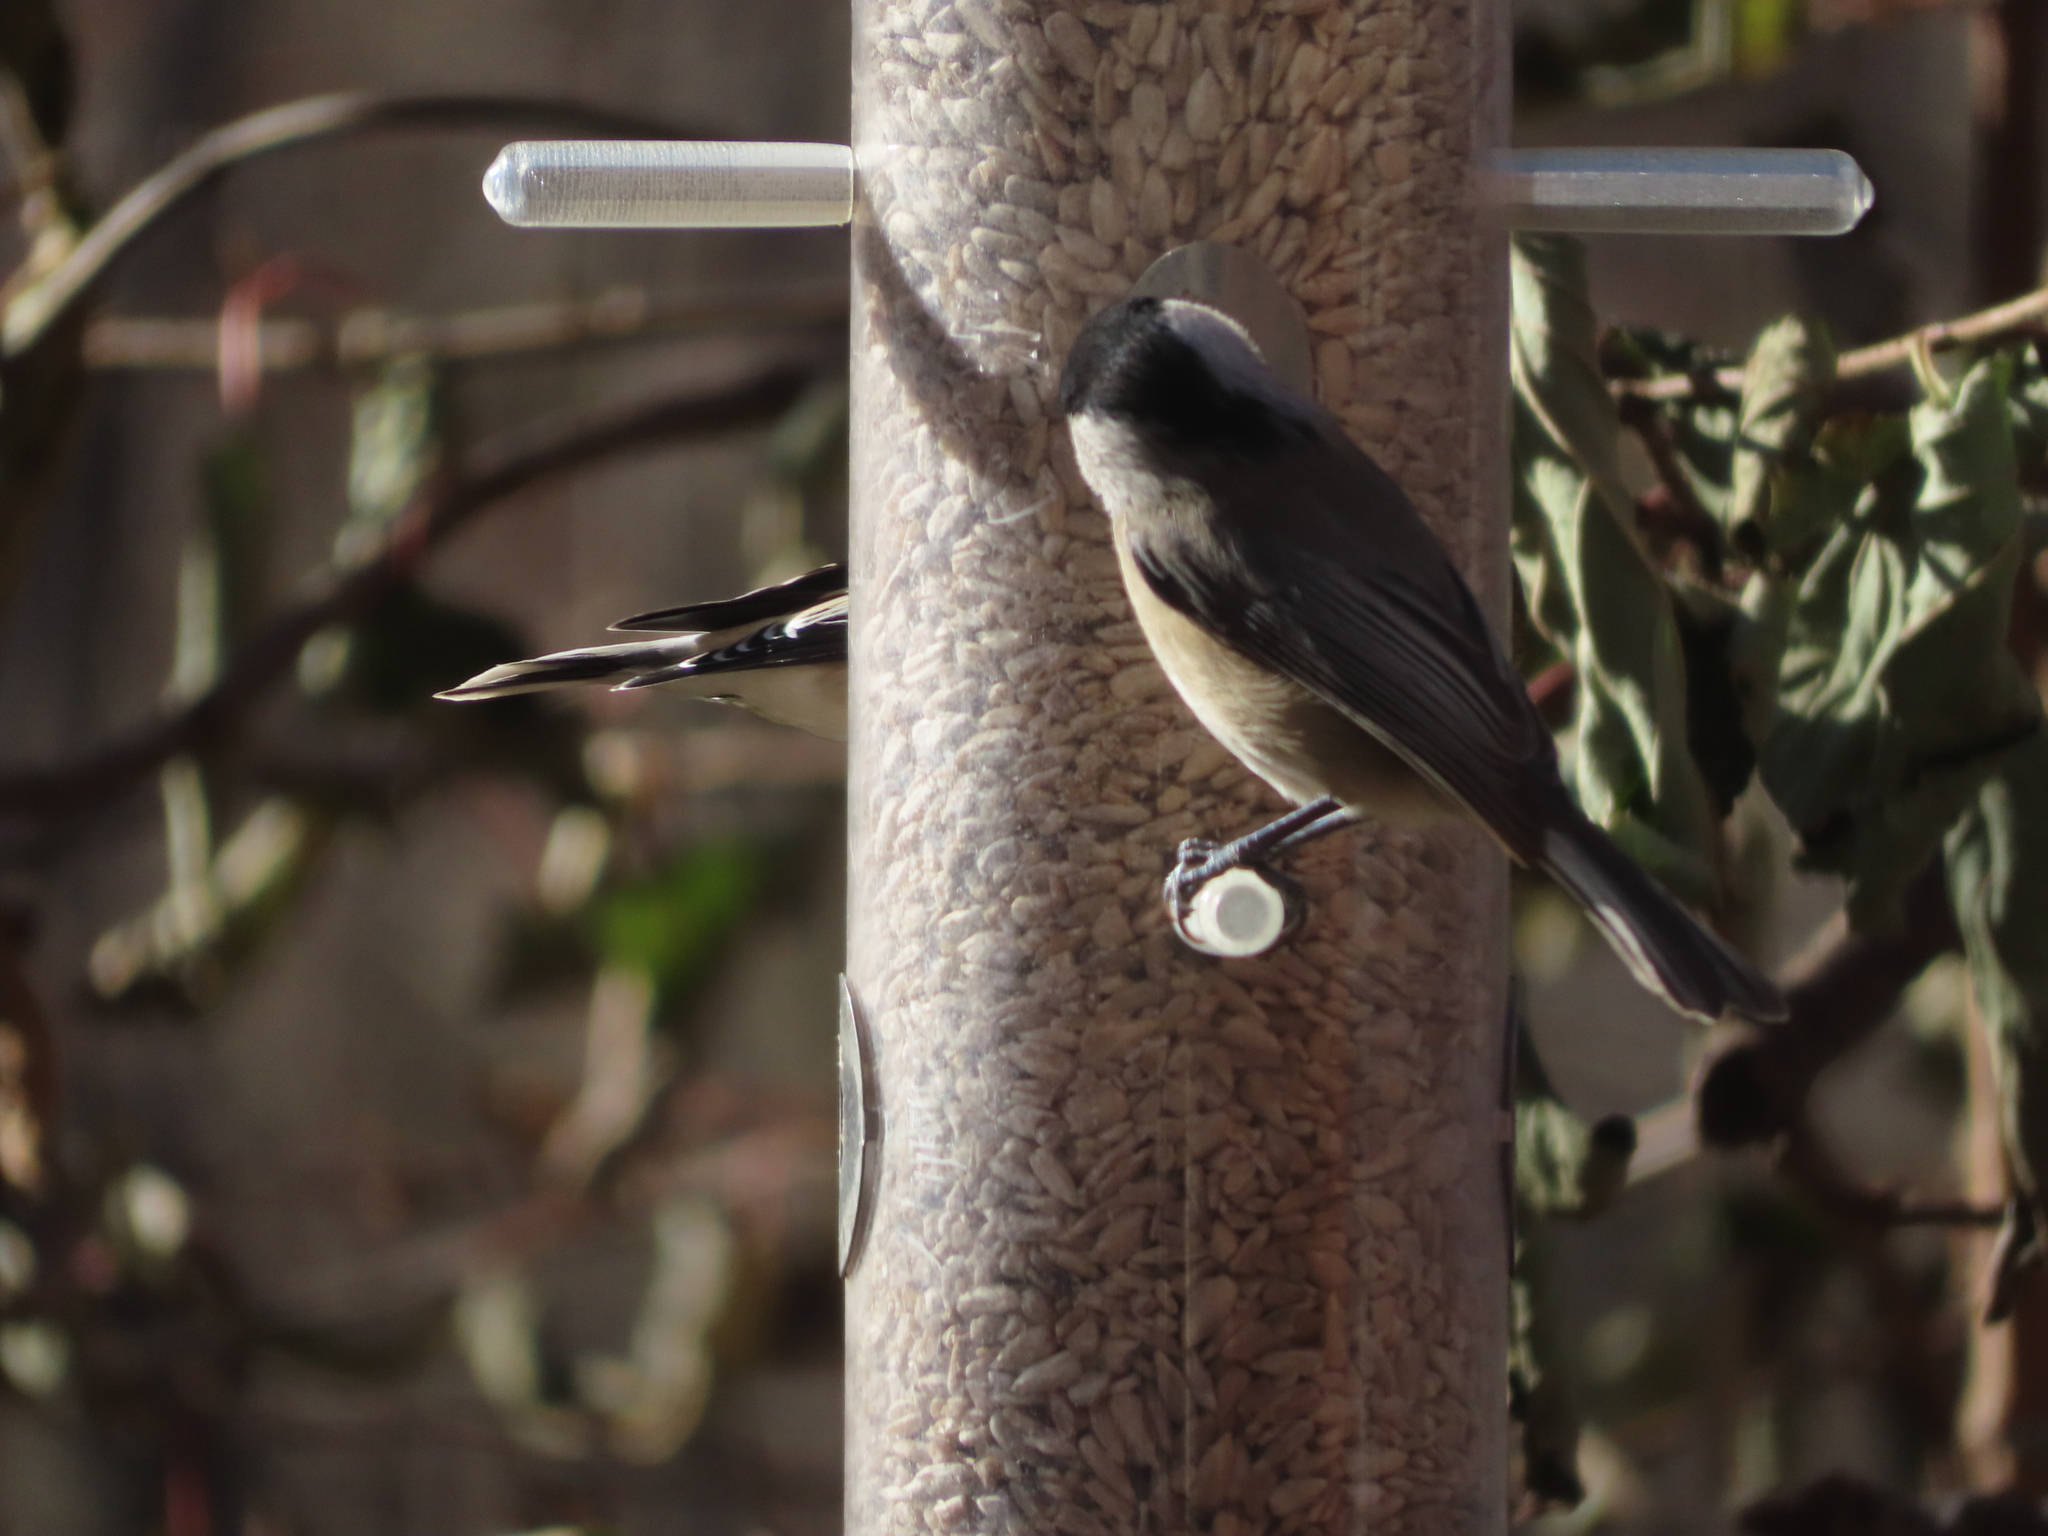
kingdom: Animalia
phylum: Chordata
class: Aves
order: Passeriformes
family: Paridae
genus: Poecile
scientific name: Poecile carolinensis
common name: Carolina chickadee
